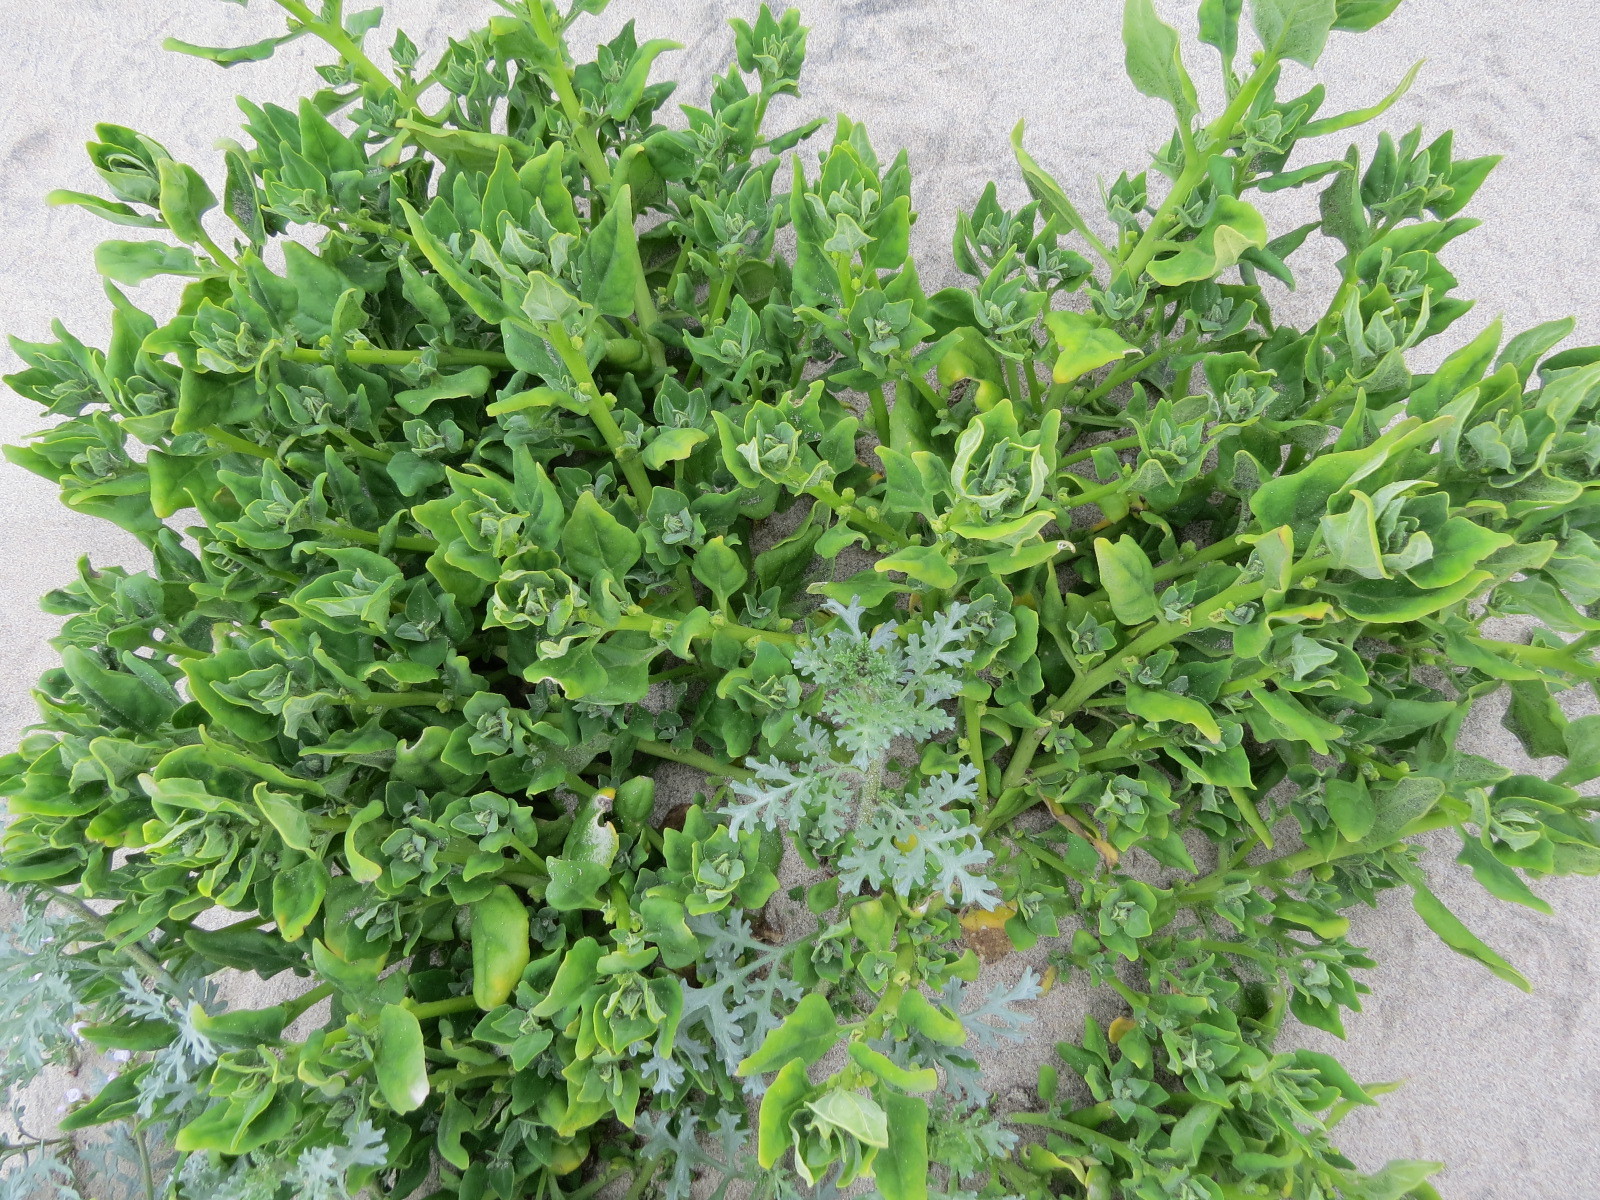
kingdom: Plantae
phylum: Tracheophyta
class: Magnoliopsida
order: Caryophyllales
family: Aizoaceae
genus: Tetragonia
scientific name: Tetragonia tetragonoides
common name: New zealand-spinach
